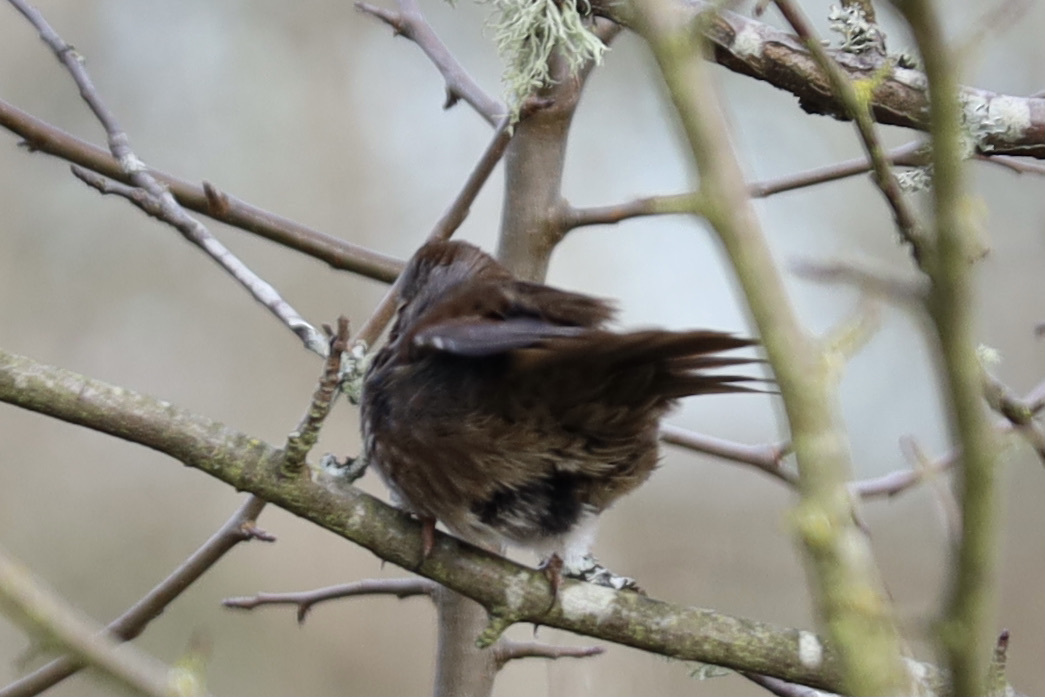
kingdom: Animalia
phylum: Chordata
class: Aves
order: Passeriformes
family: Passerellidae
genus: Melospiza
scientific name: Melospiza melodia
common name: Song sparrow
